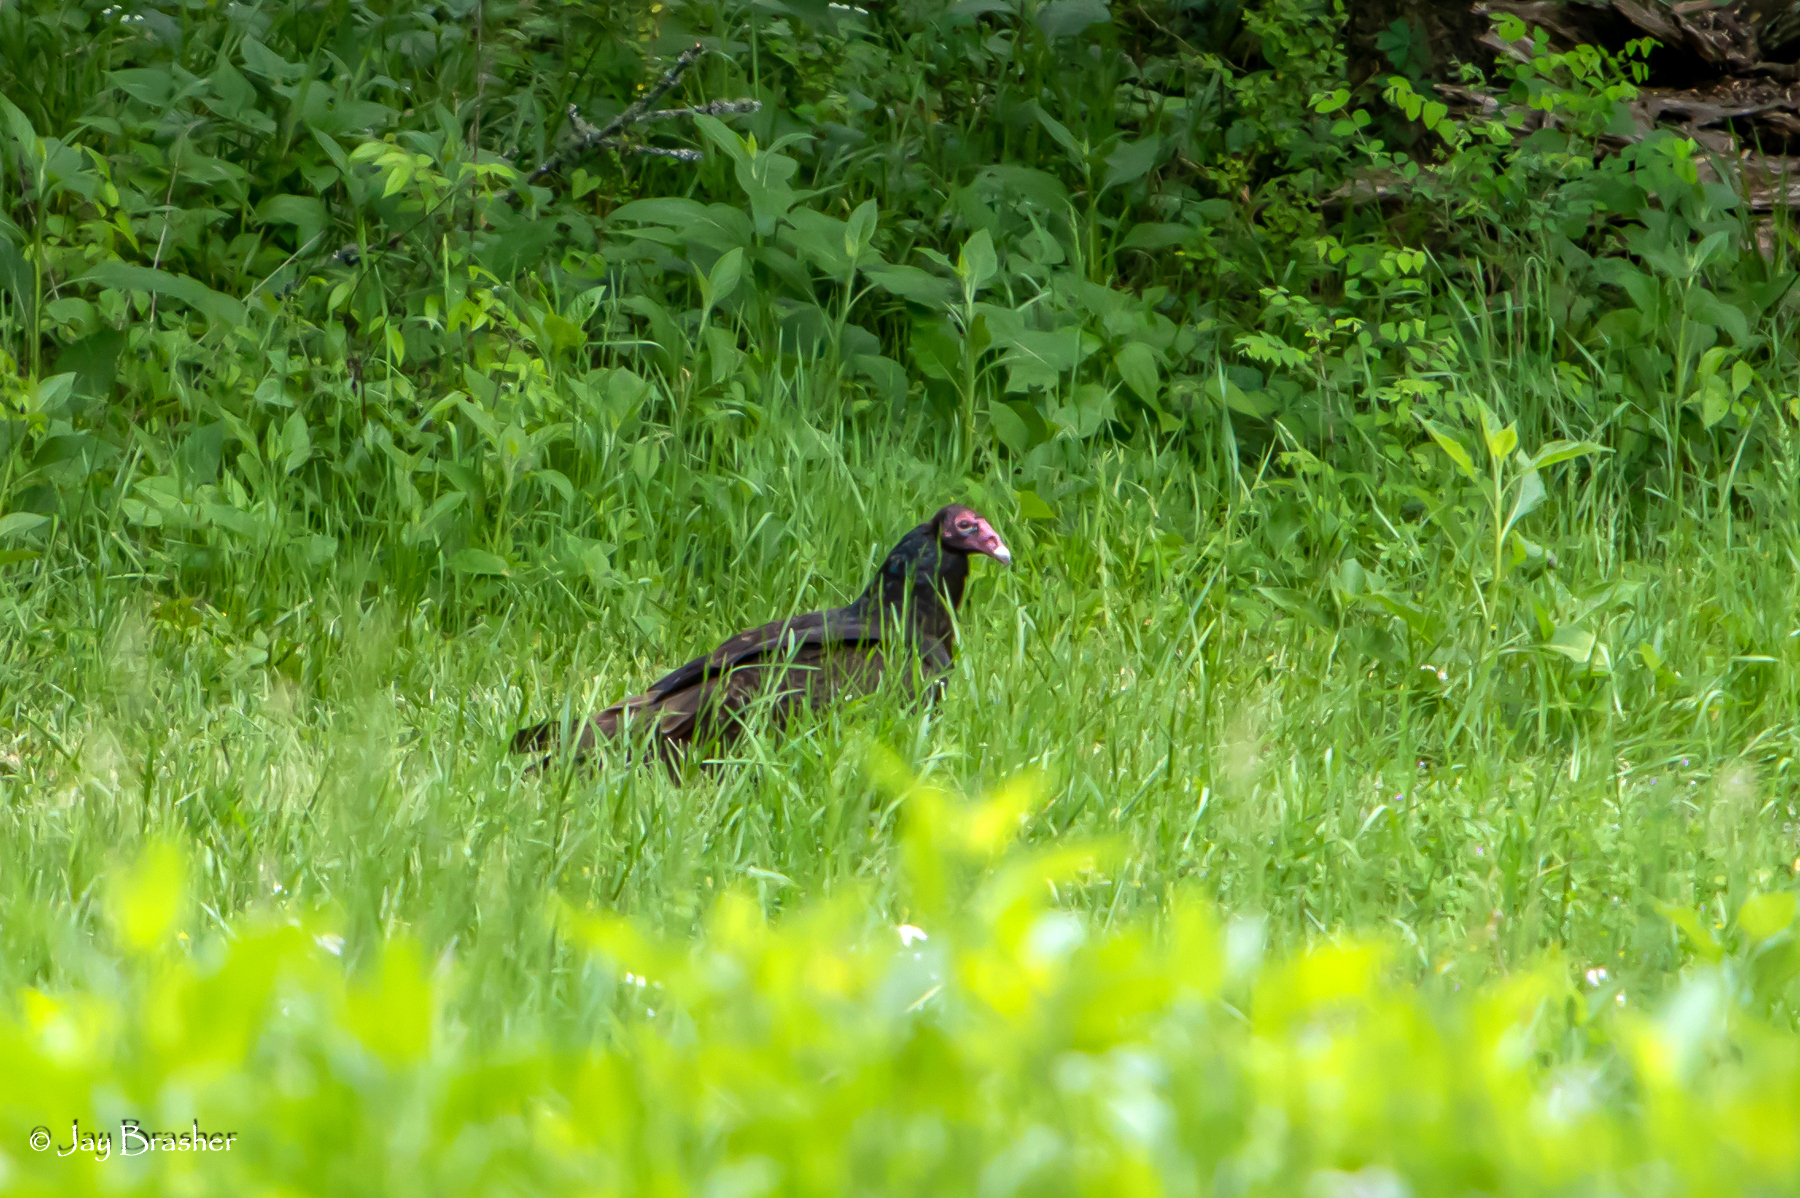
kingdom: Animalia
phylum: Chordata
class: Aves
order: Accipitriformes
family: Cathartidae
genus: Cathartes
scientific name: Cathartes aura
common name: Turkey vulture
